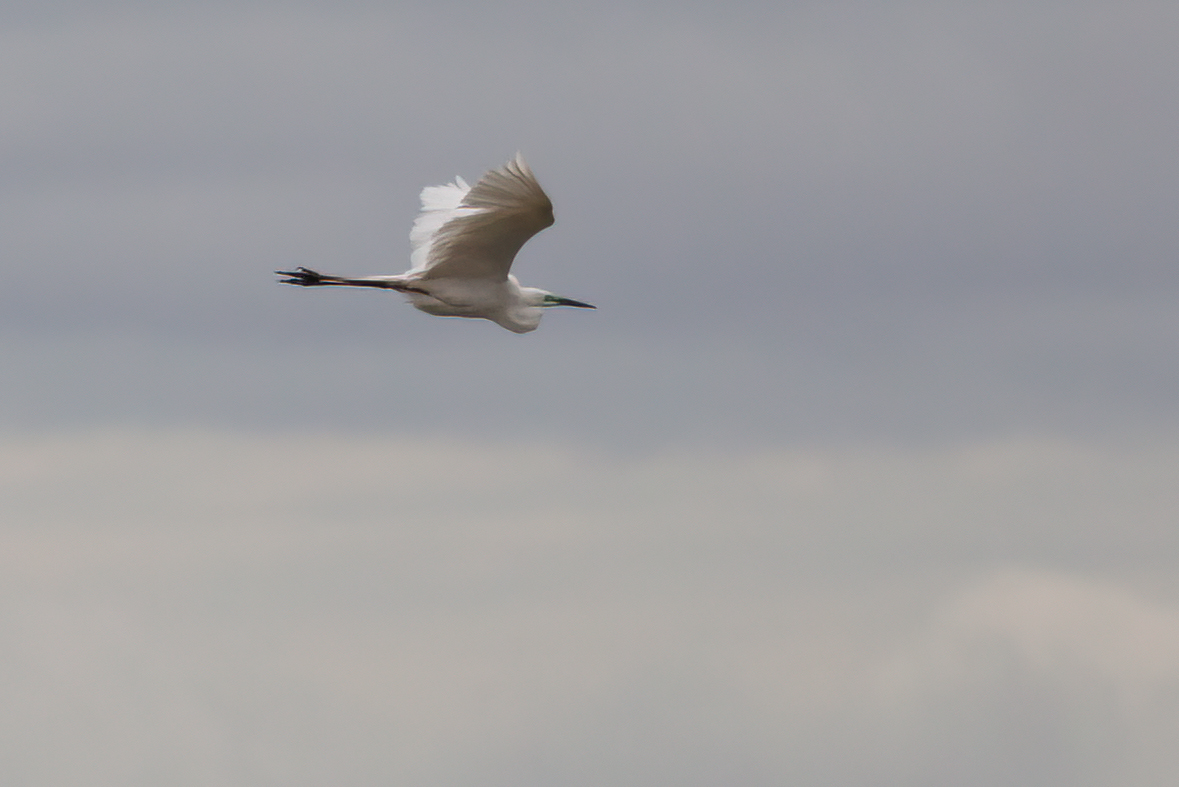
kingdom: Animalia
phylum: Chordata
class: Aves
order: Pelecaniformes
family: Ardeidae
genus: Ardea
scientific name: Ardea alba
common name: Great egret
